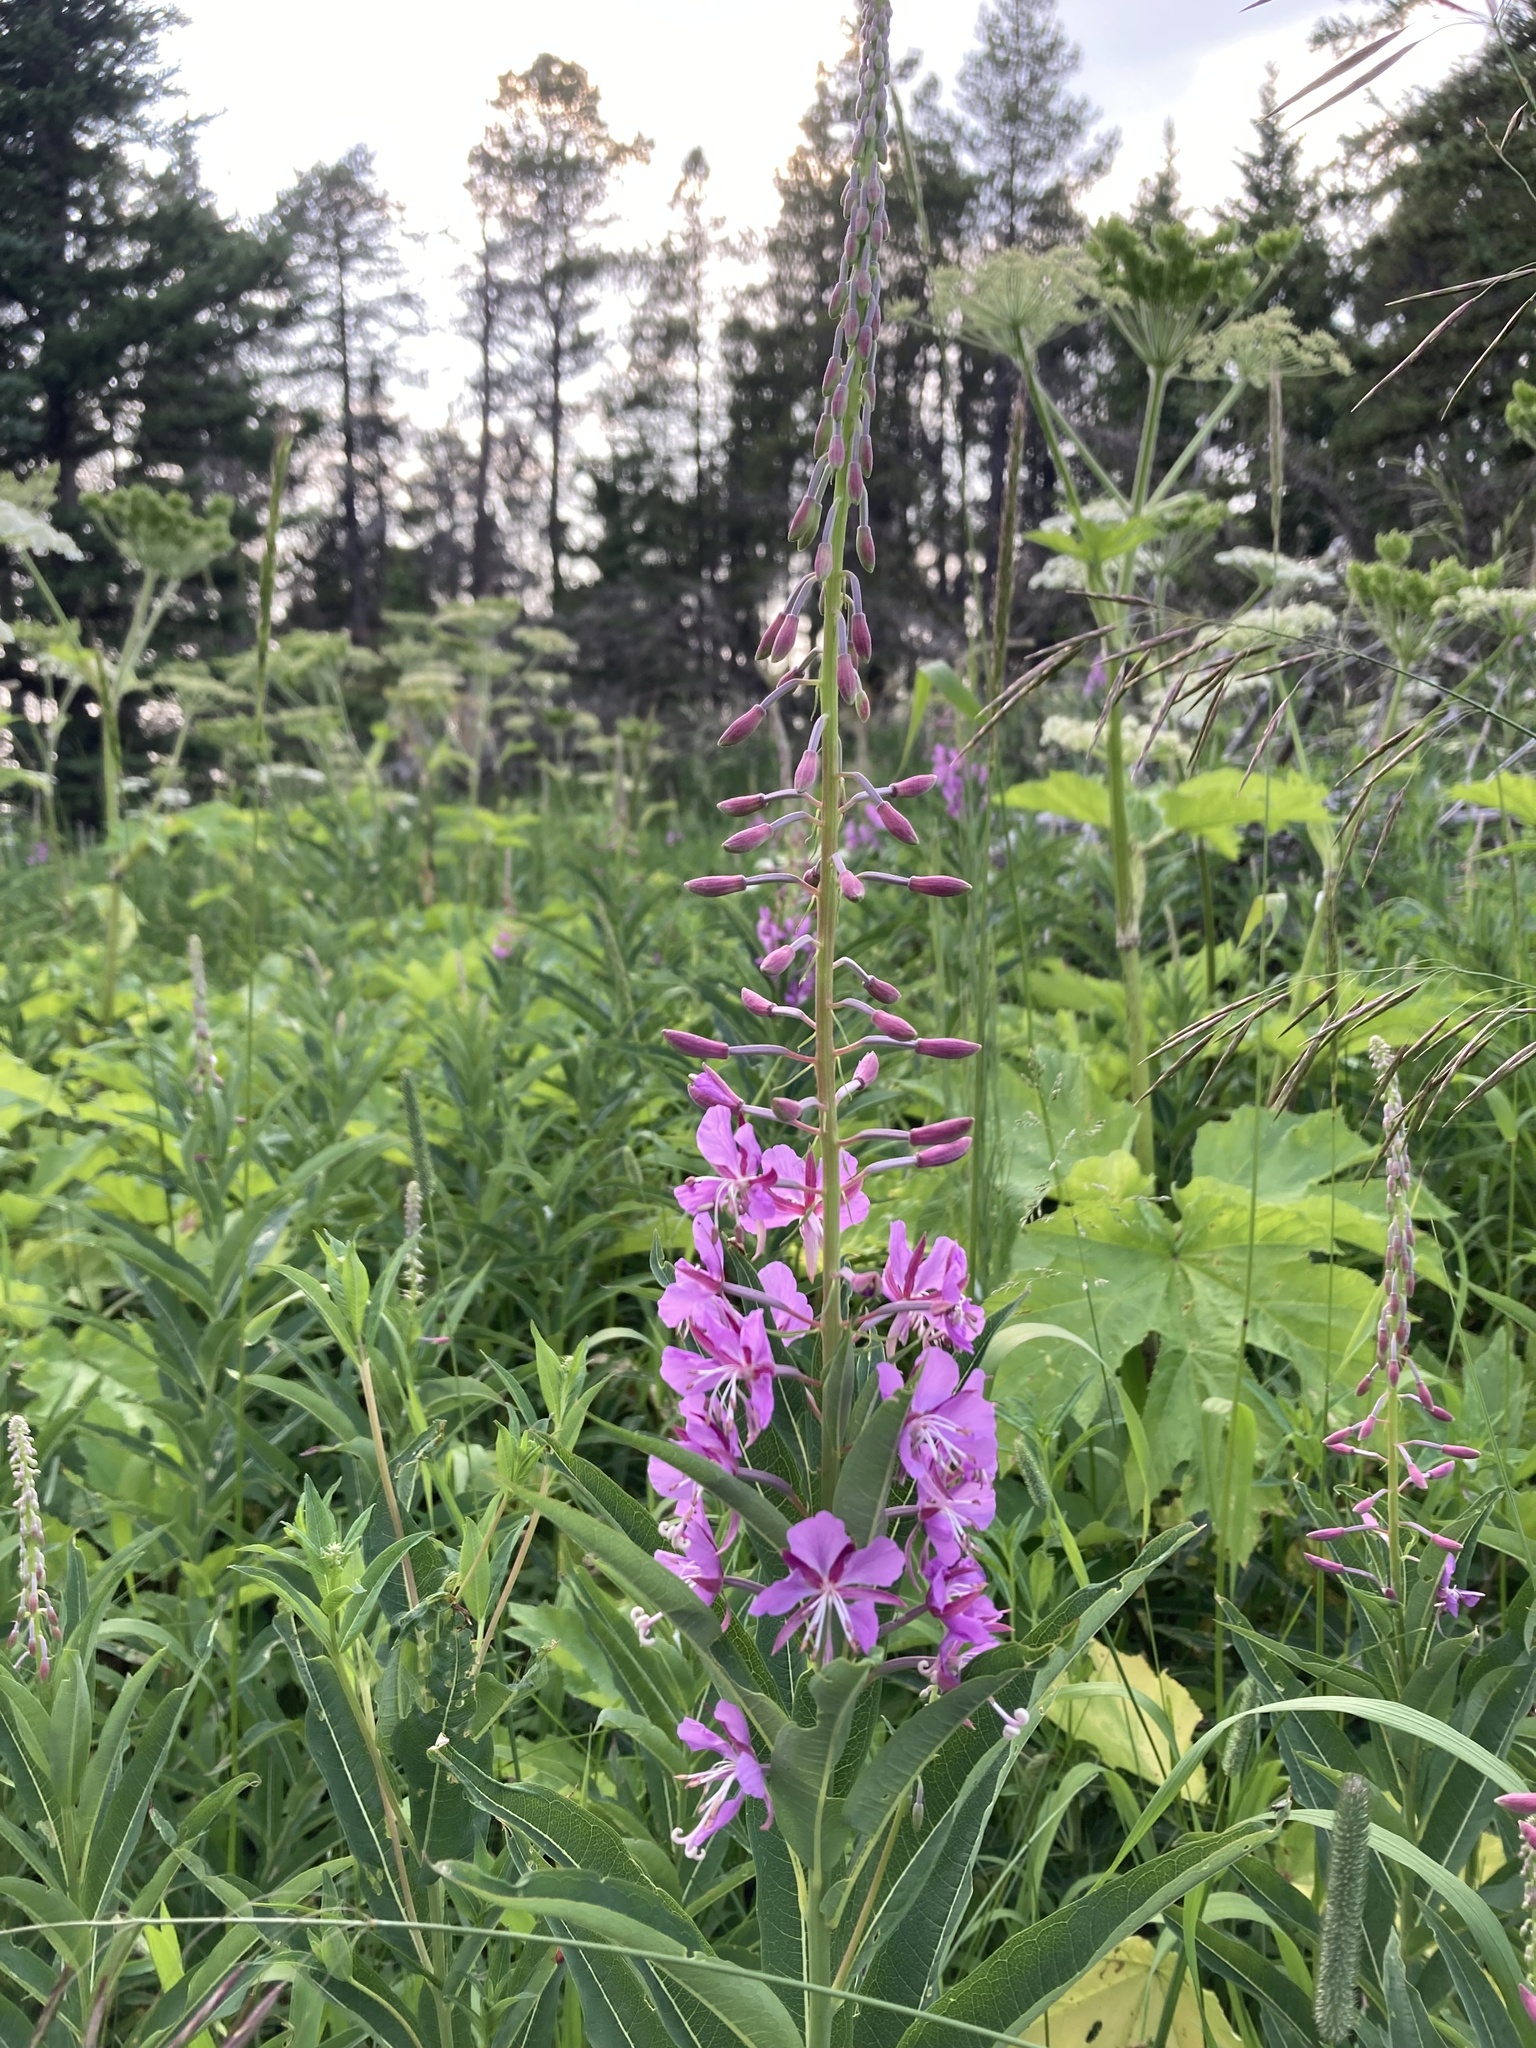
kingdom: Plantae
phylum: Tracheophyta
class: Magnoliopsida
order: Myrtales
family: Onagraceae
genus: Chamaenerion
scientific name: Chamaenerion angustifolium
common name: Fireweed
